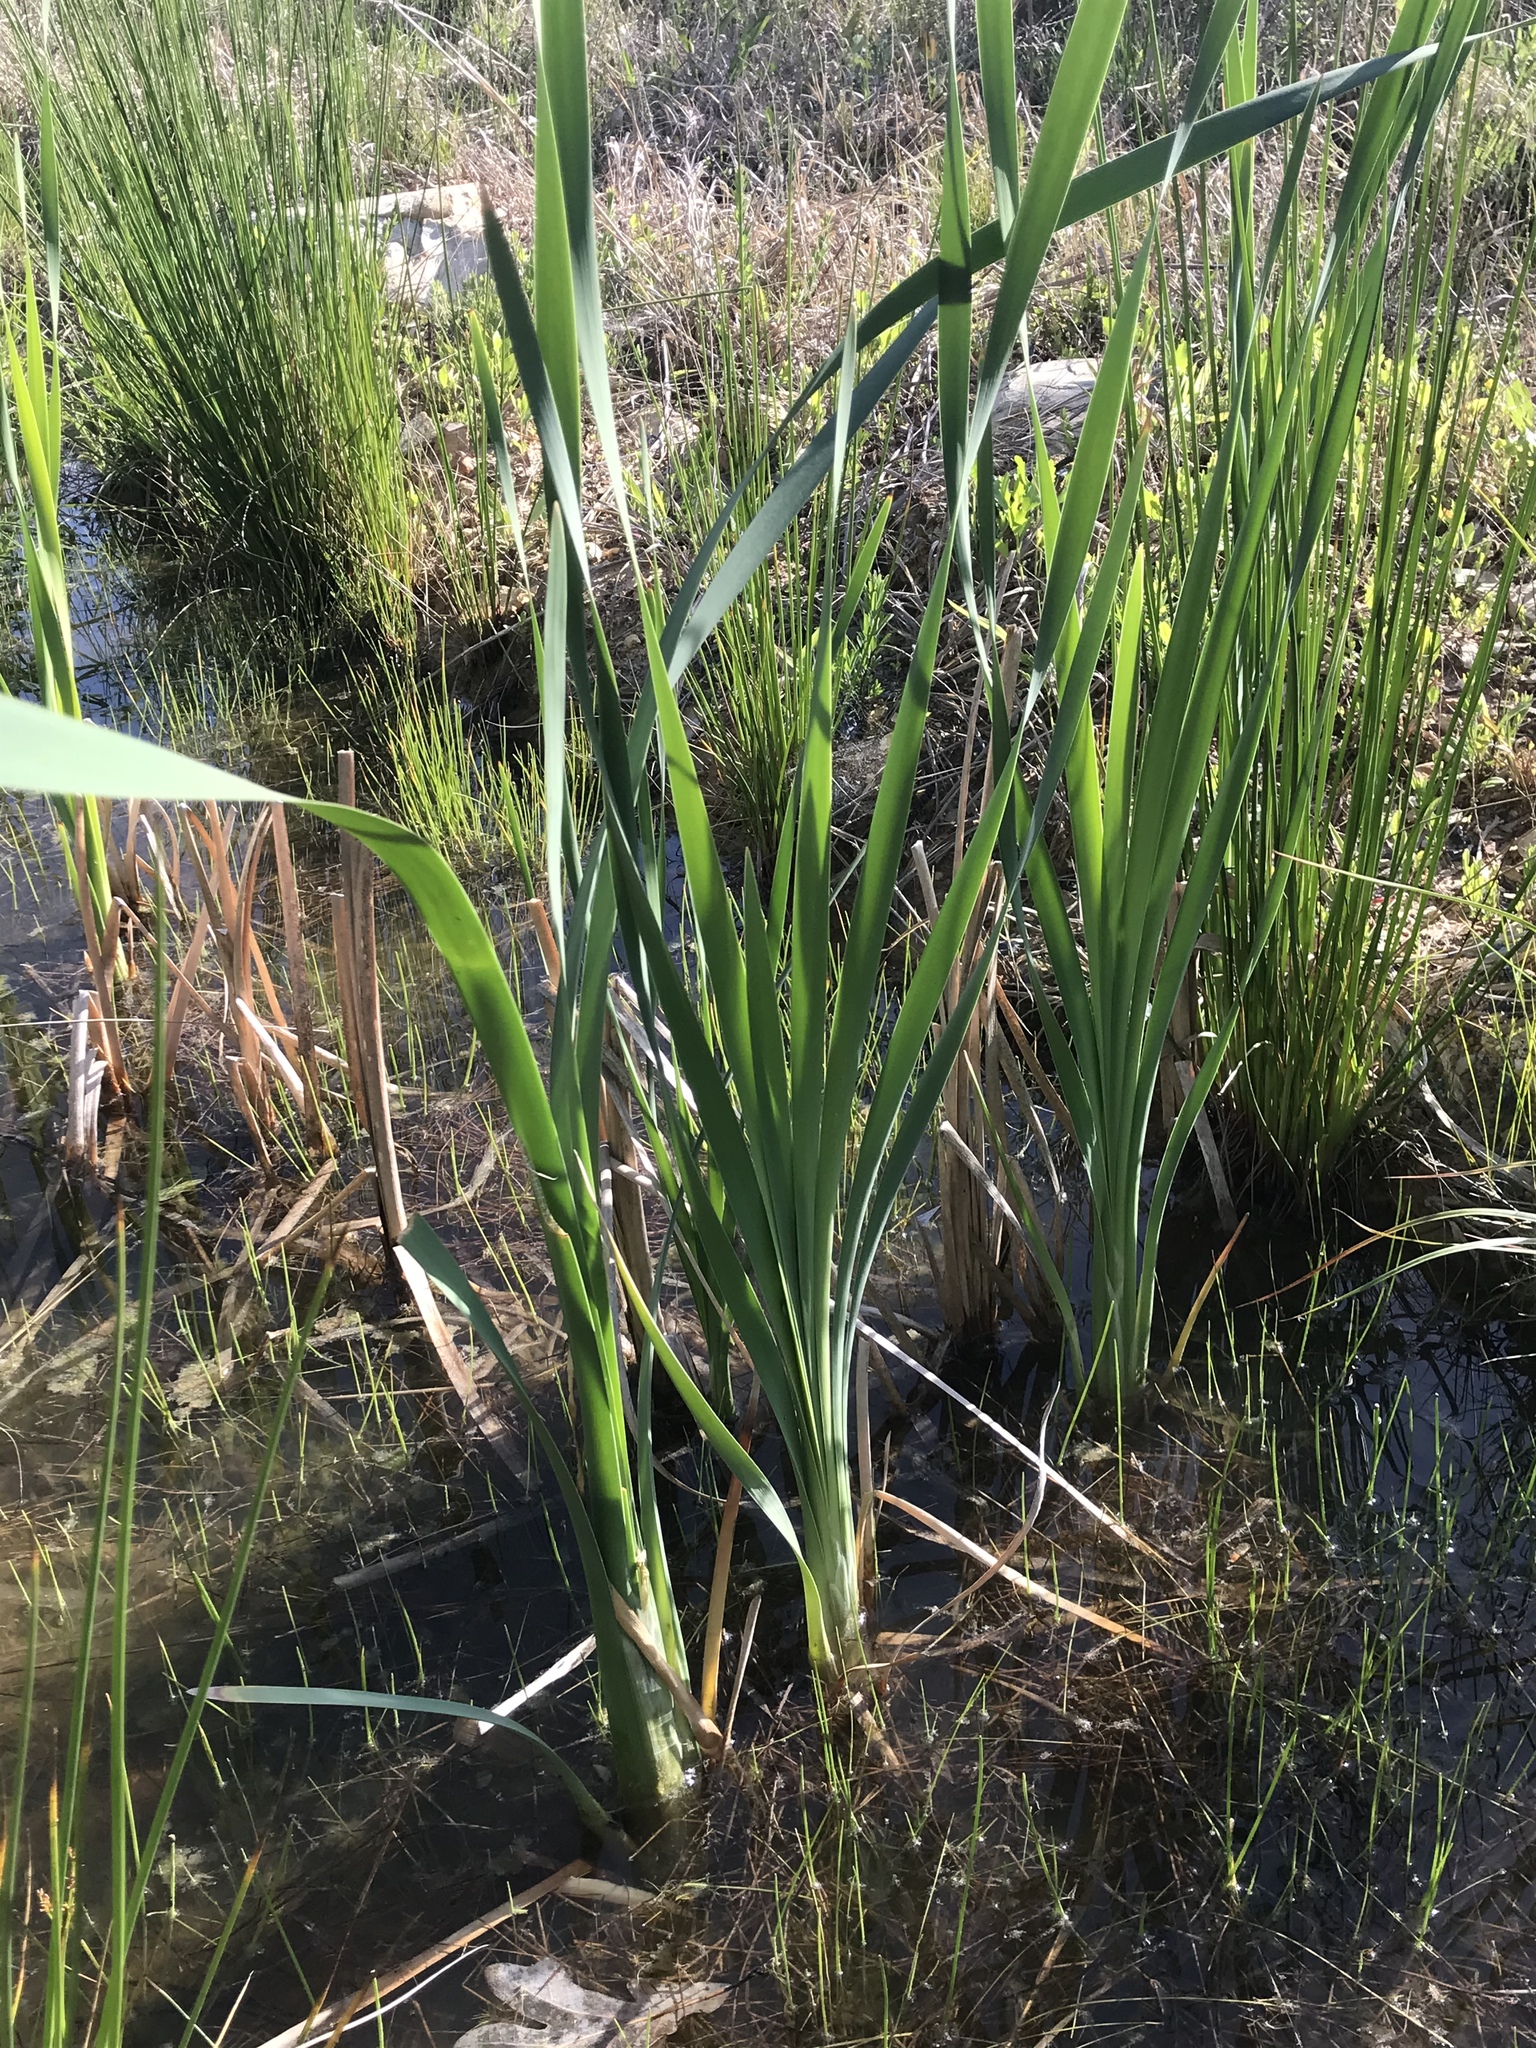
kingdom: Plantae
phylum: Tracheophyta
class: Liliopsida
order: Poales
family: Typhaceae
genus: Typha
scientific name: Typha latifolia
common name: Broadleaf cattail
